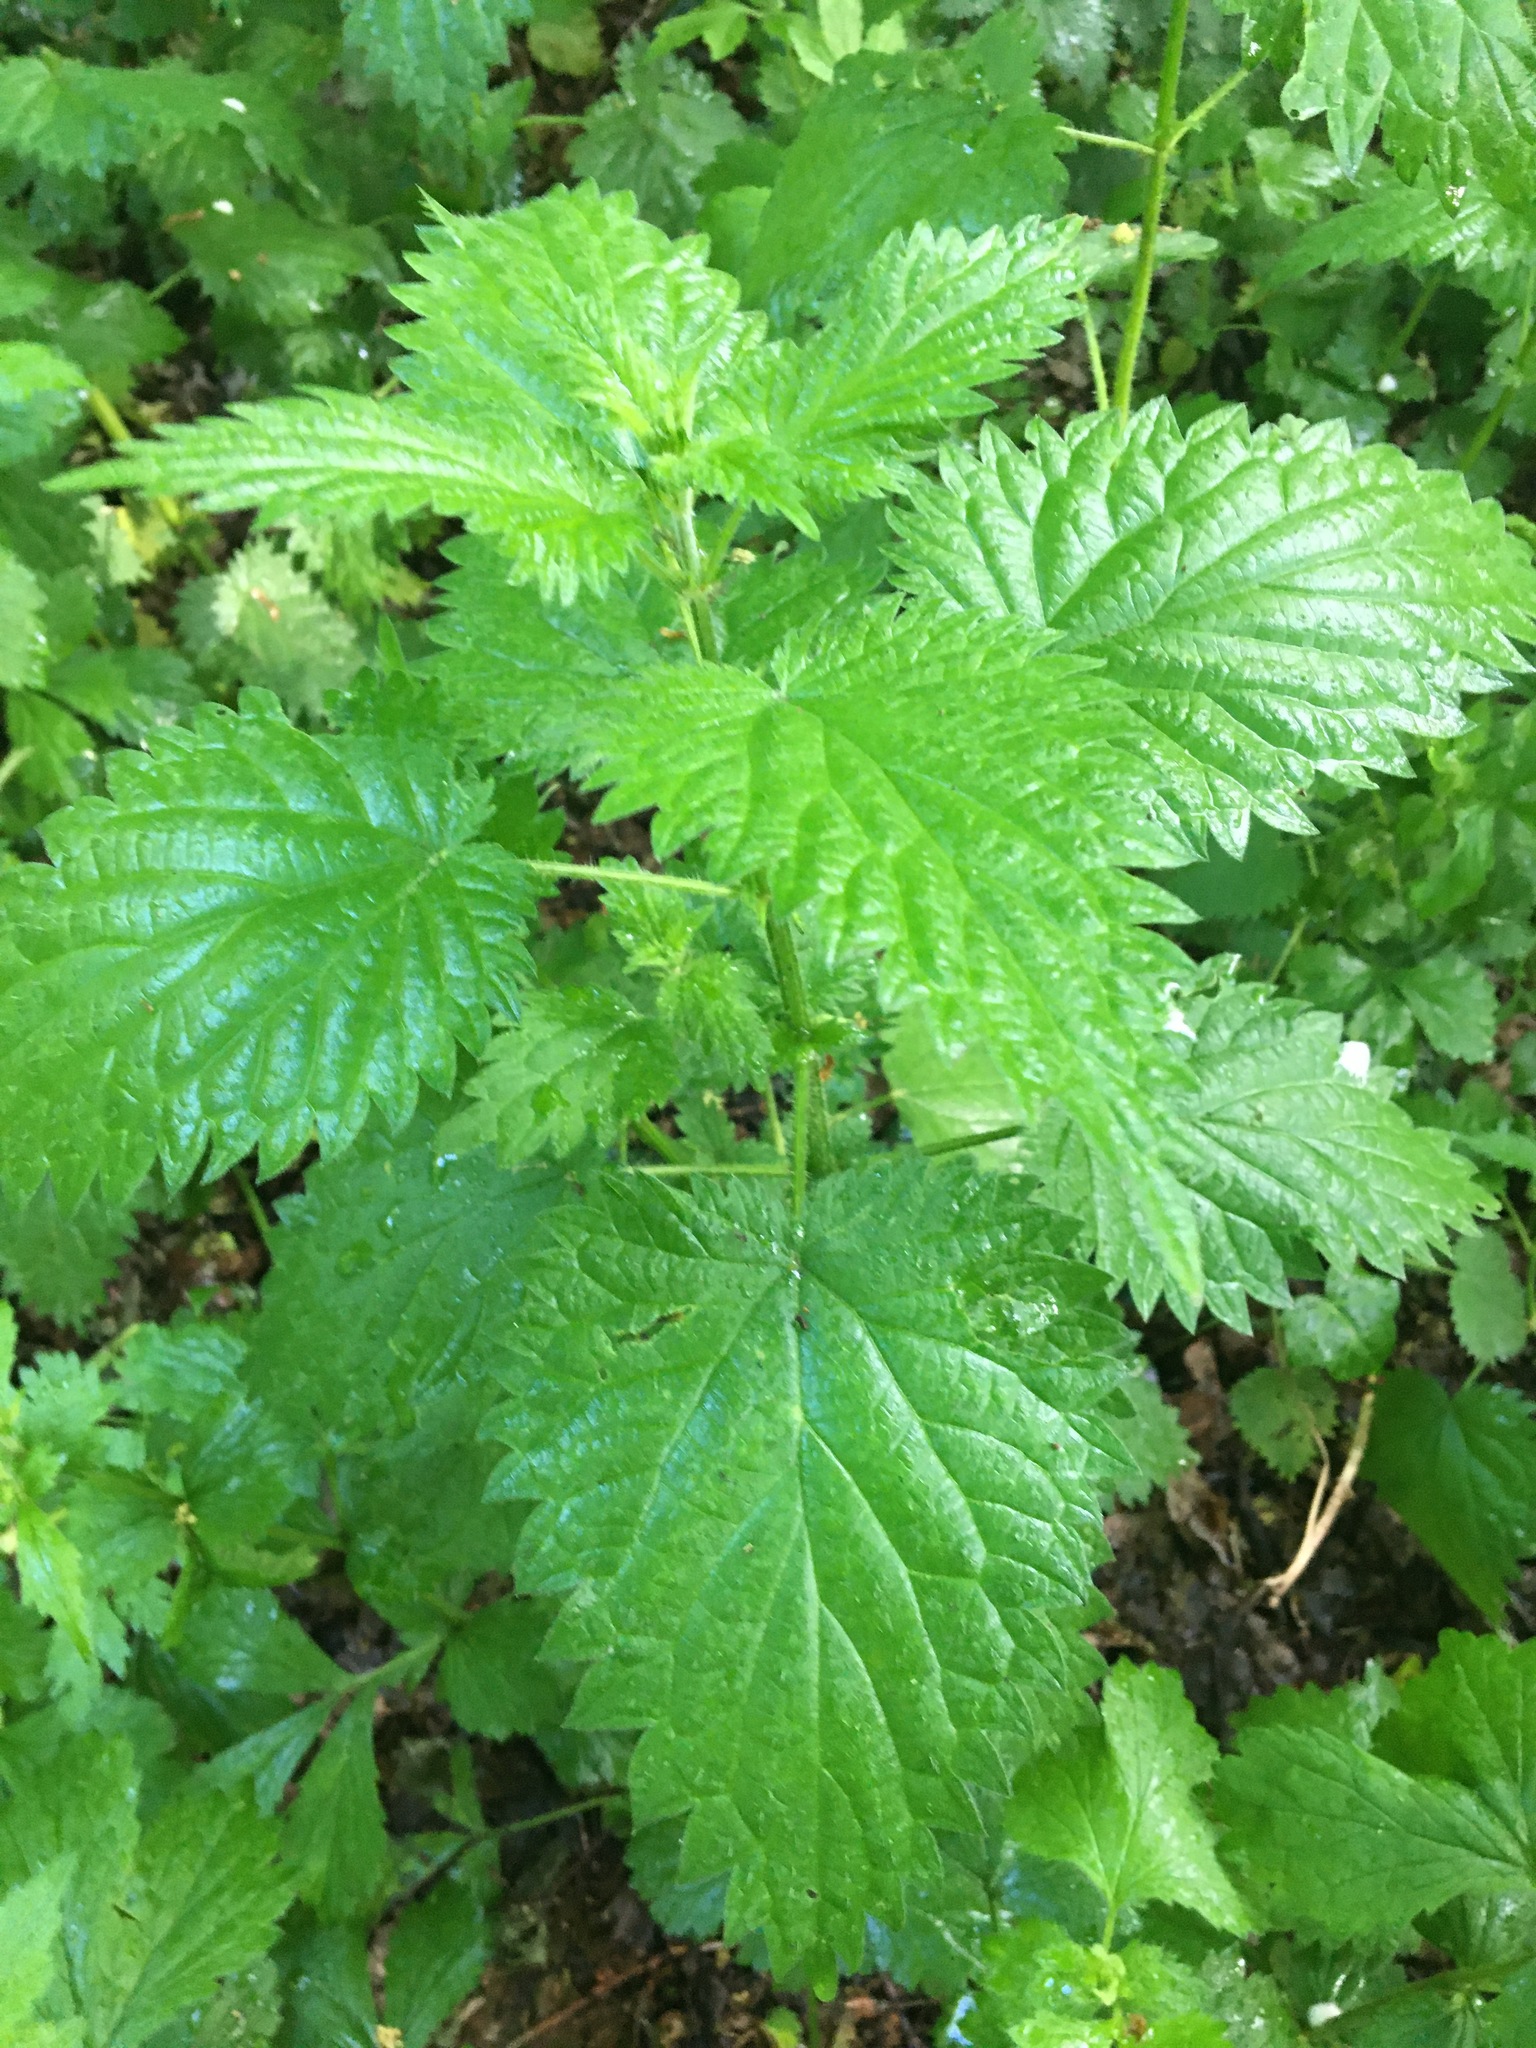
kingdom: Plantae
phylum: Tracheophyta
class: Magnoliopsida
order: Rosales
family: Urticaceae
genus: Urtica
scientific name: Urtica dioica
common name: Common nettle
